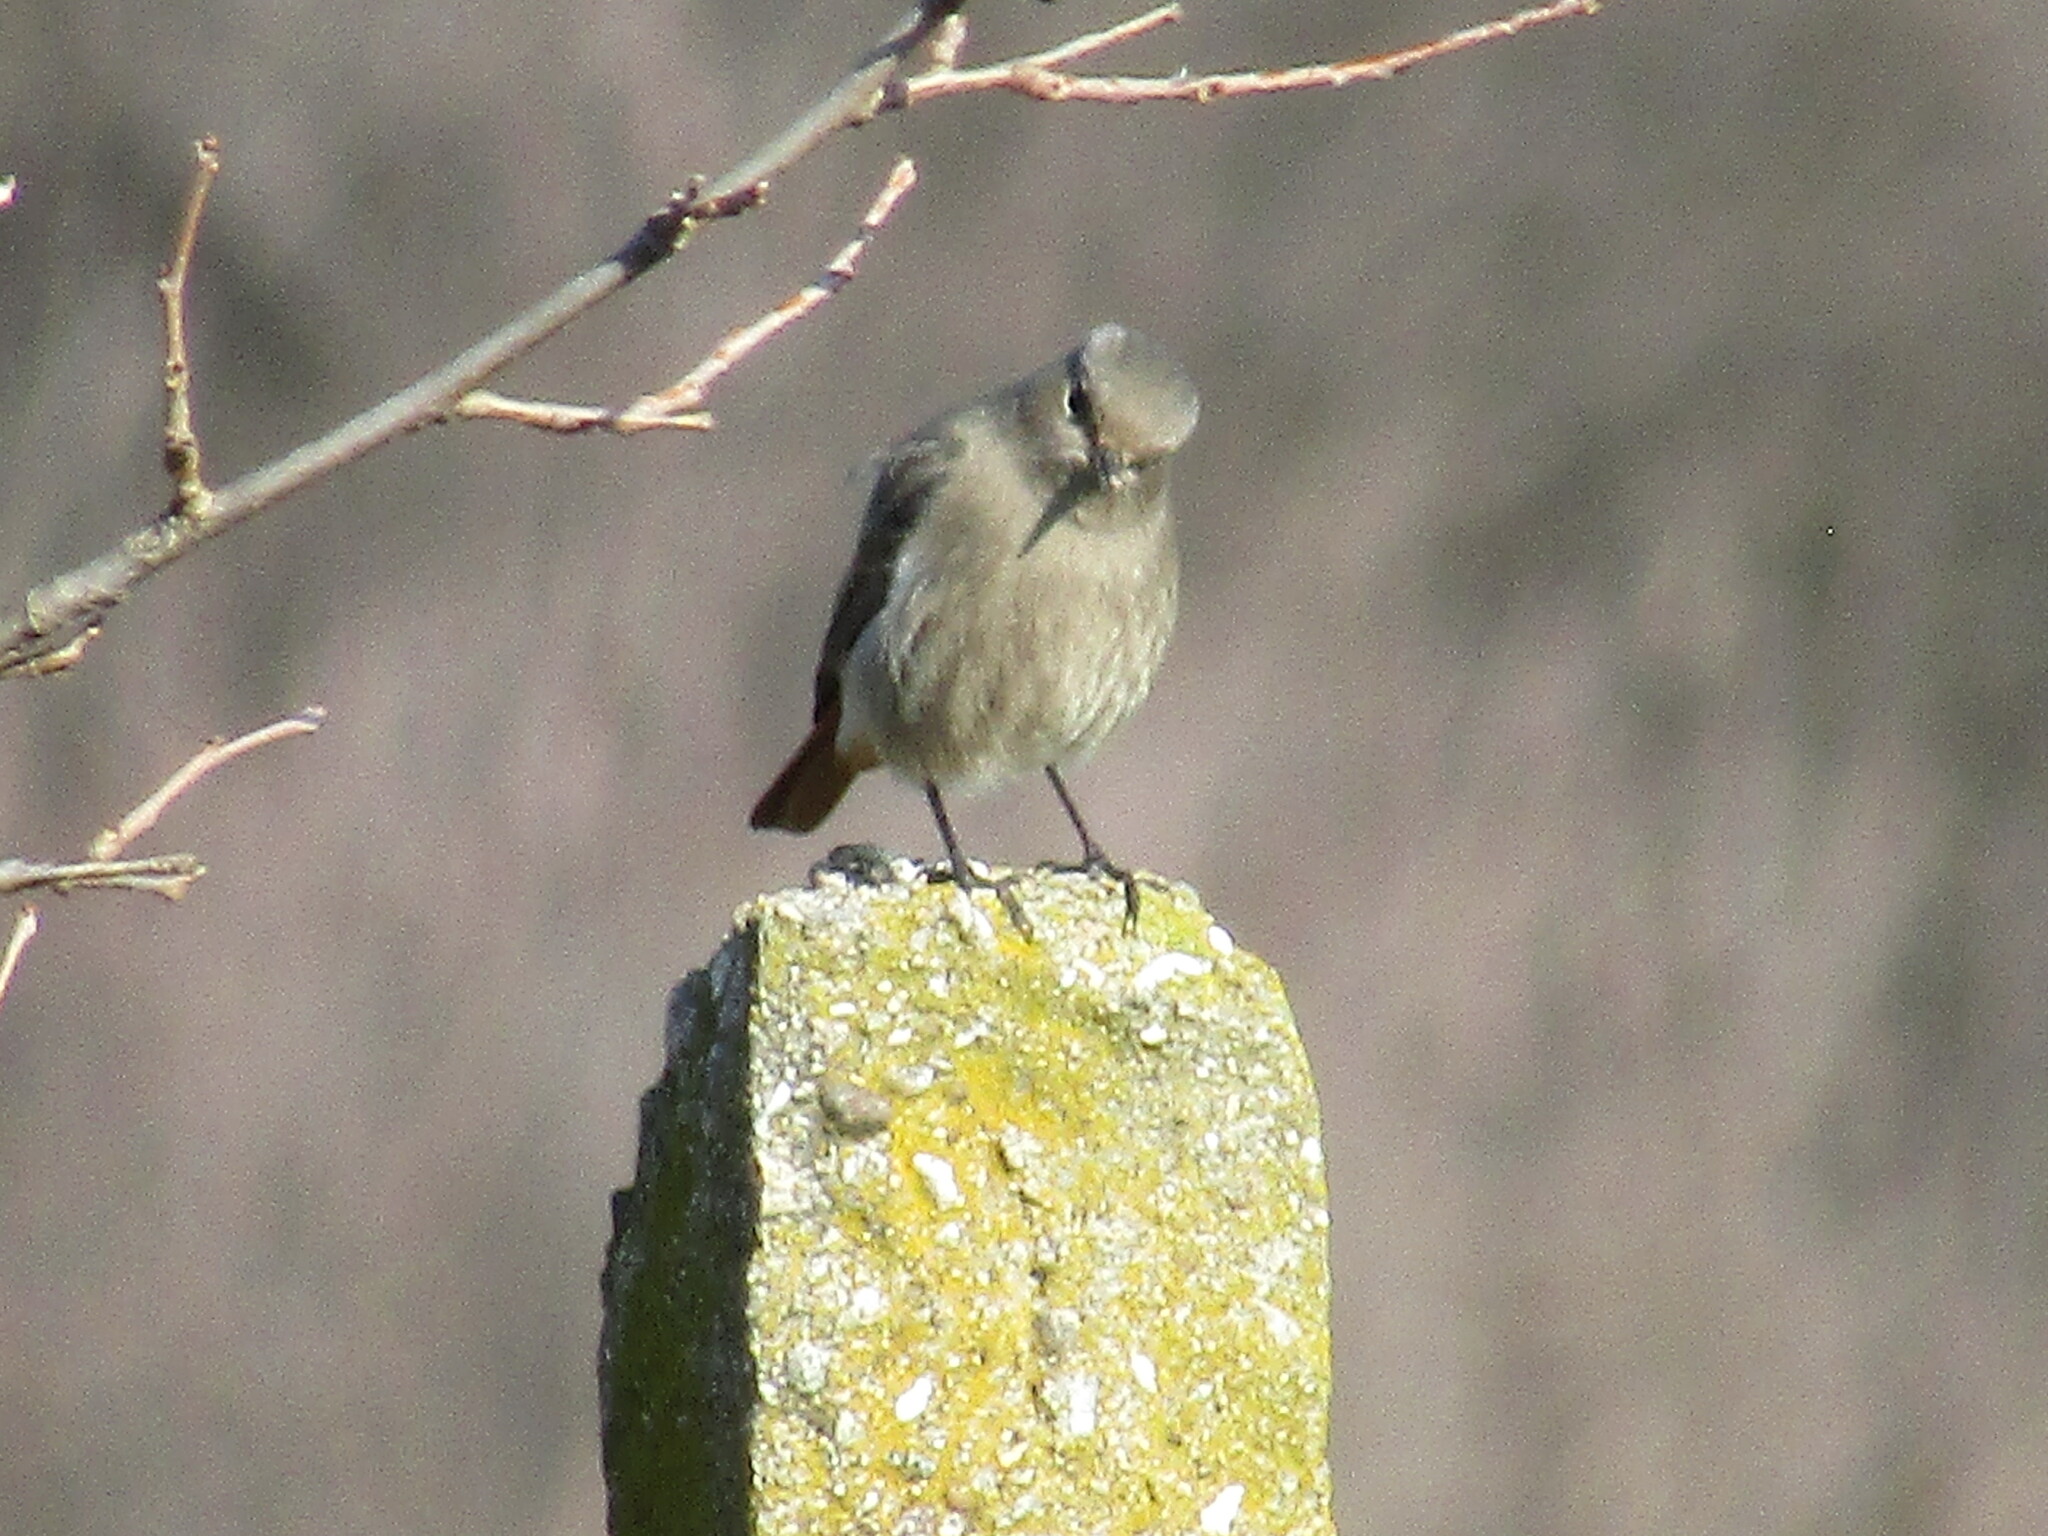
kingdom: Animalia
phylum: Chordata
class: Aves
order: Passeriformes
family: Muscicapidae
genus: Phoenicurus
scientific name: Phoenicurus ochruros
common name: Black redstart
